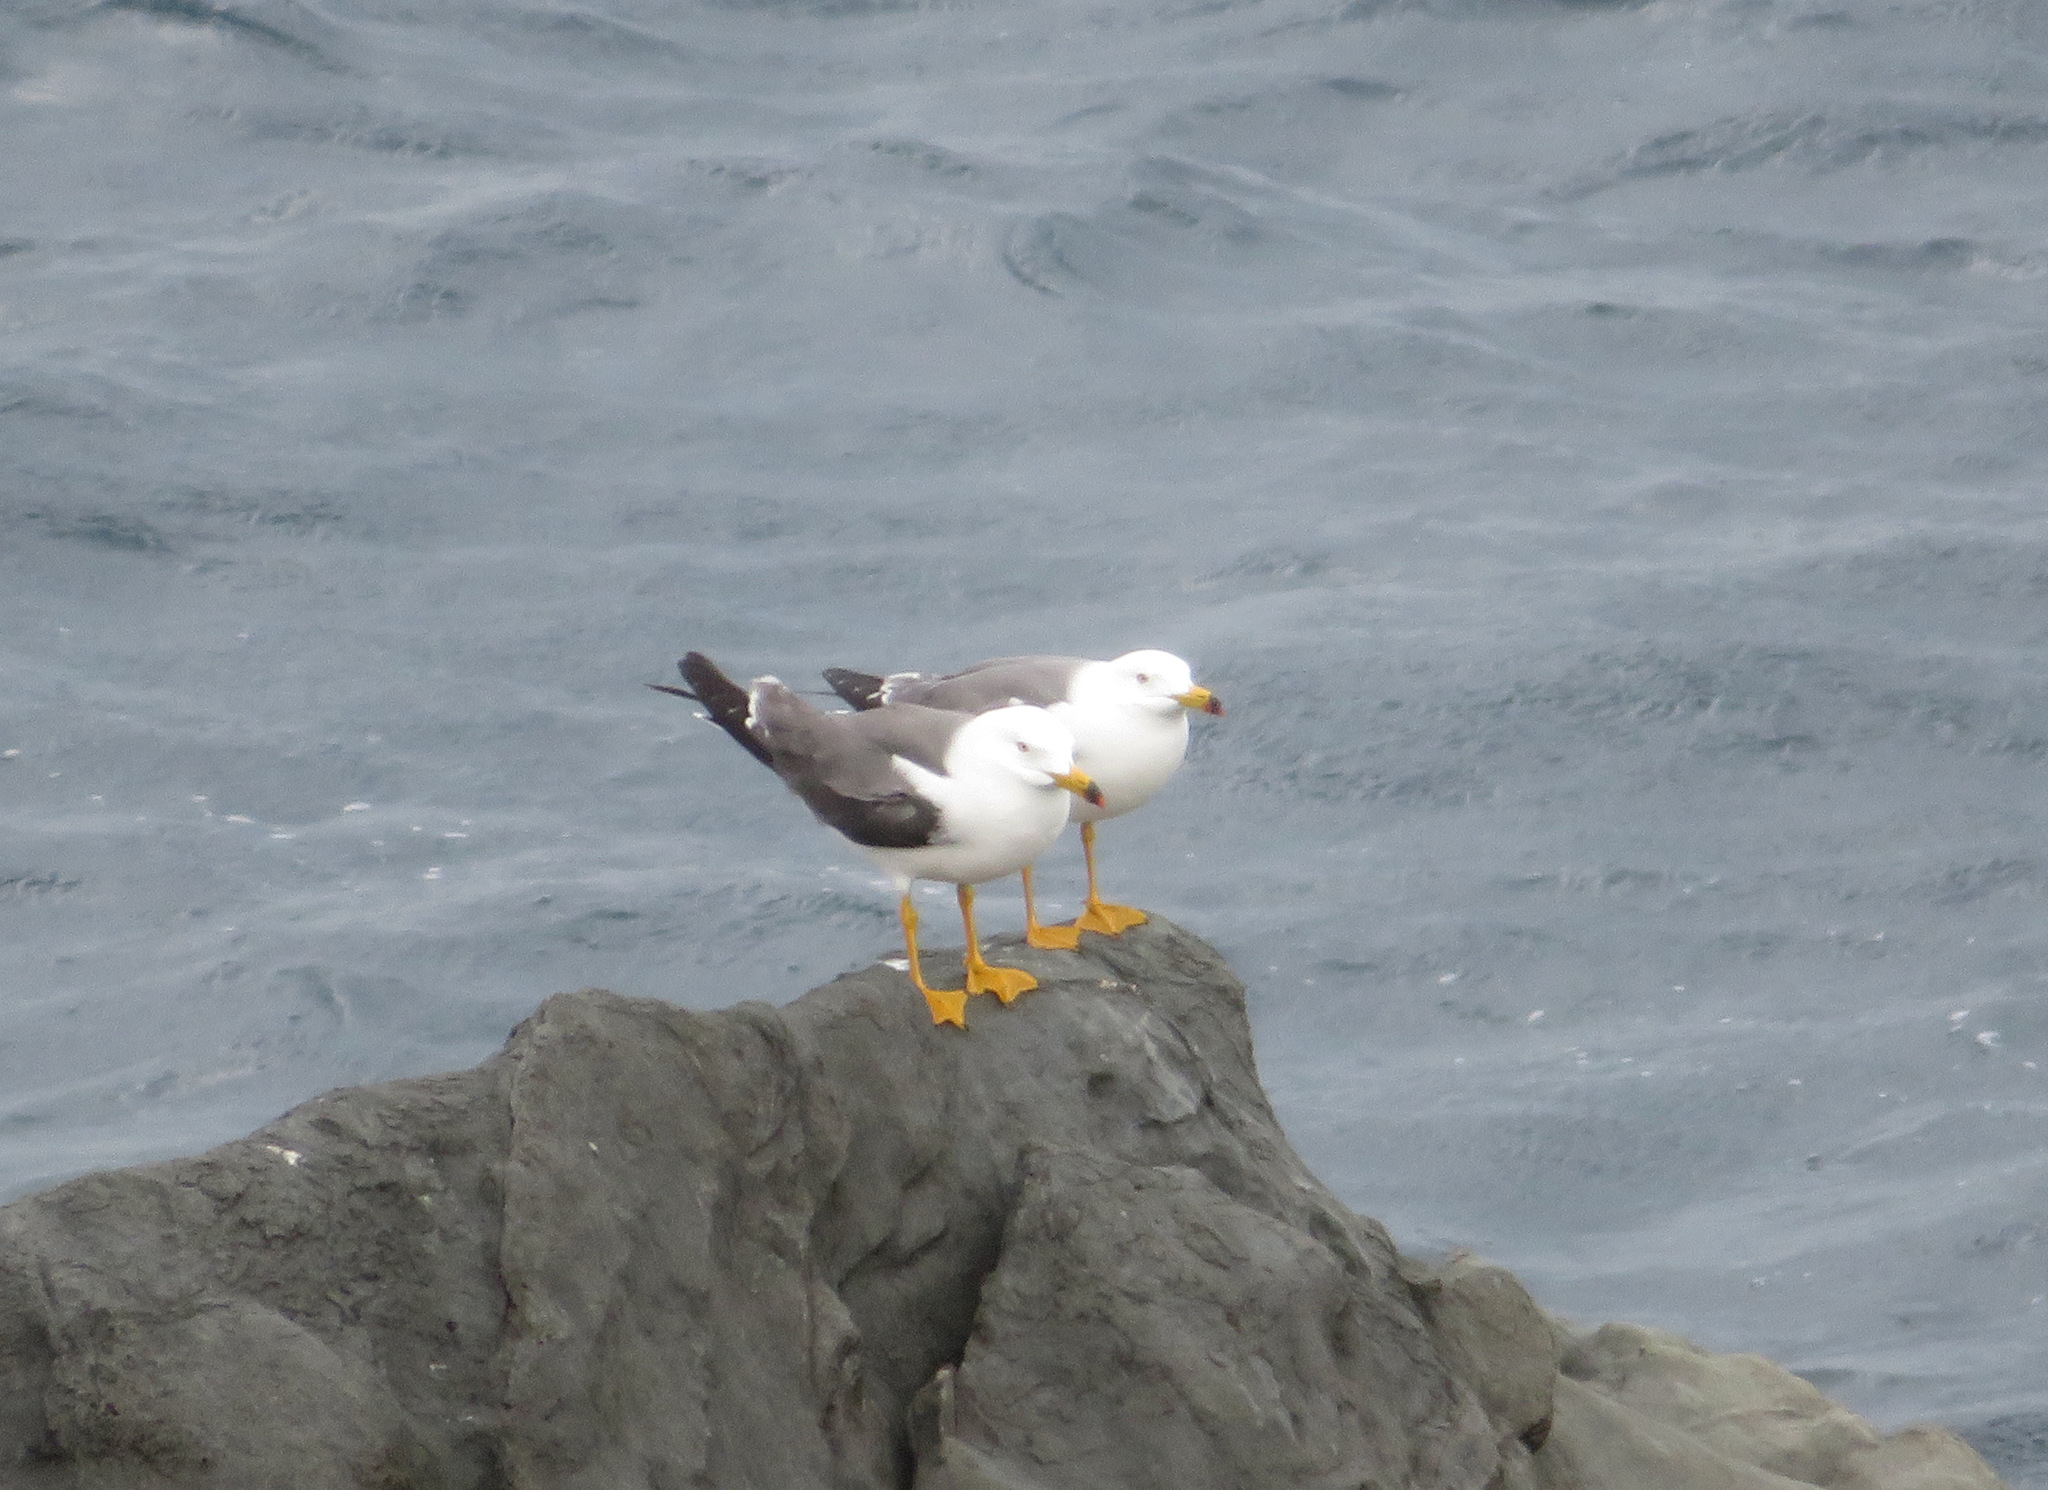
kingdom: Animalia
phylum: Chordata
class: Aves
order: Charadriiformes
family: Laridae
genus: Larus
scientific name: Larus crassirostris
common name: Black-tailed gull
